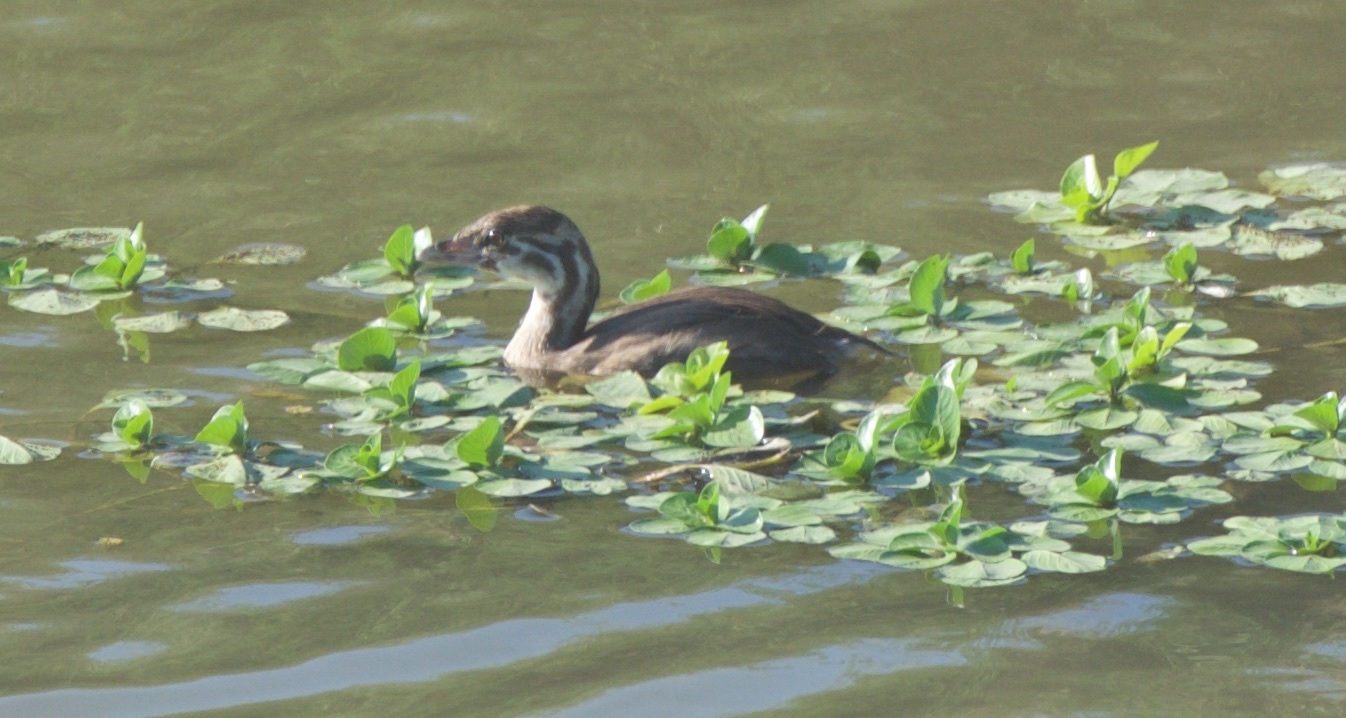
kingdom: Animalia
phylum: Chordata
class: Aves
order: Podicipediformes
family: Podicipedidae
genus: Podilymbus
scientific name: Podilymbus podiceps
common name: Pied-billed grebe
